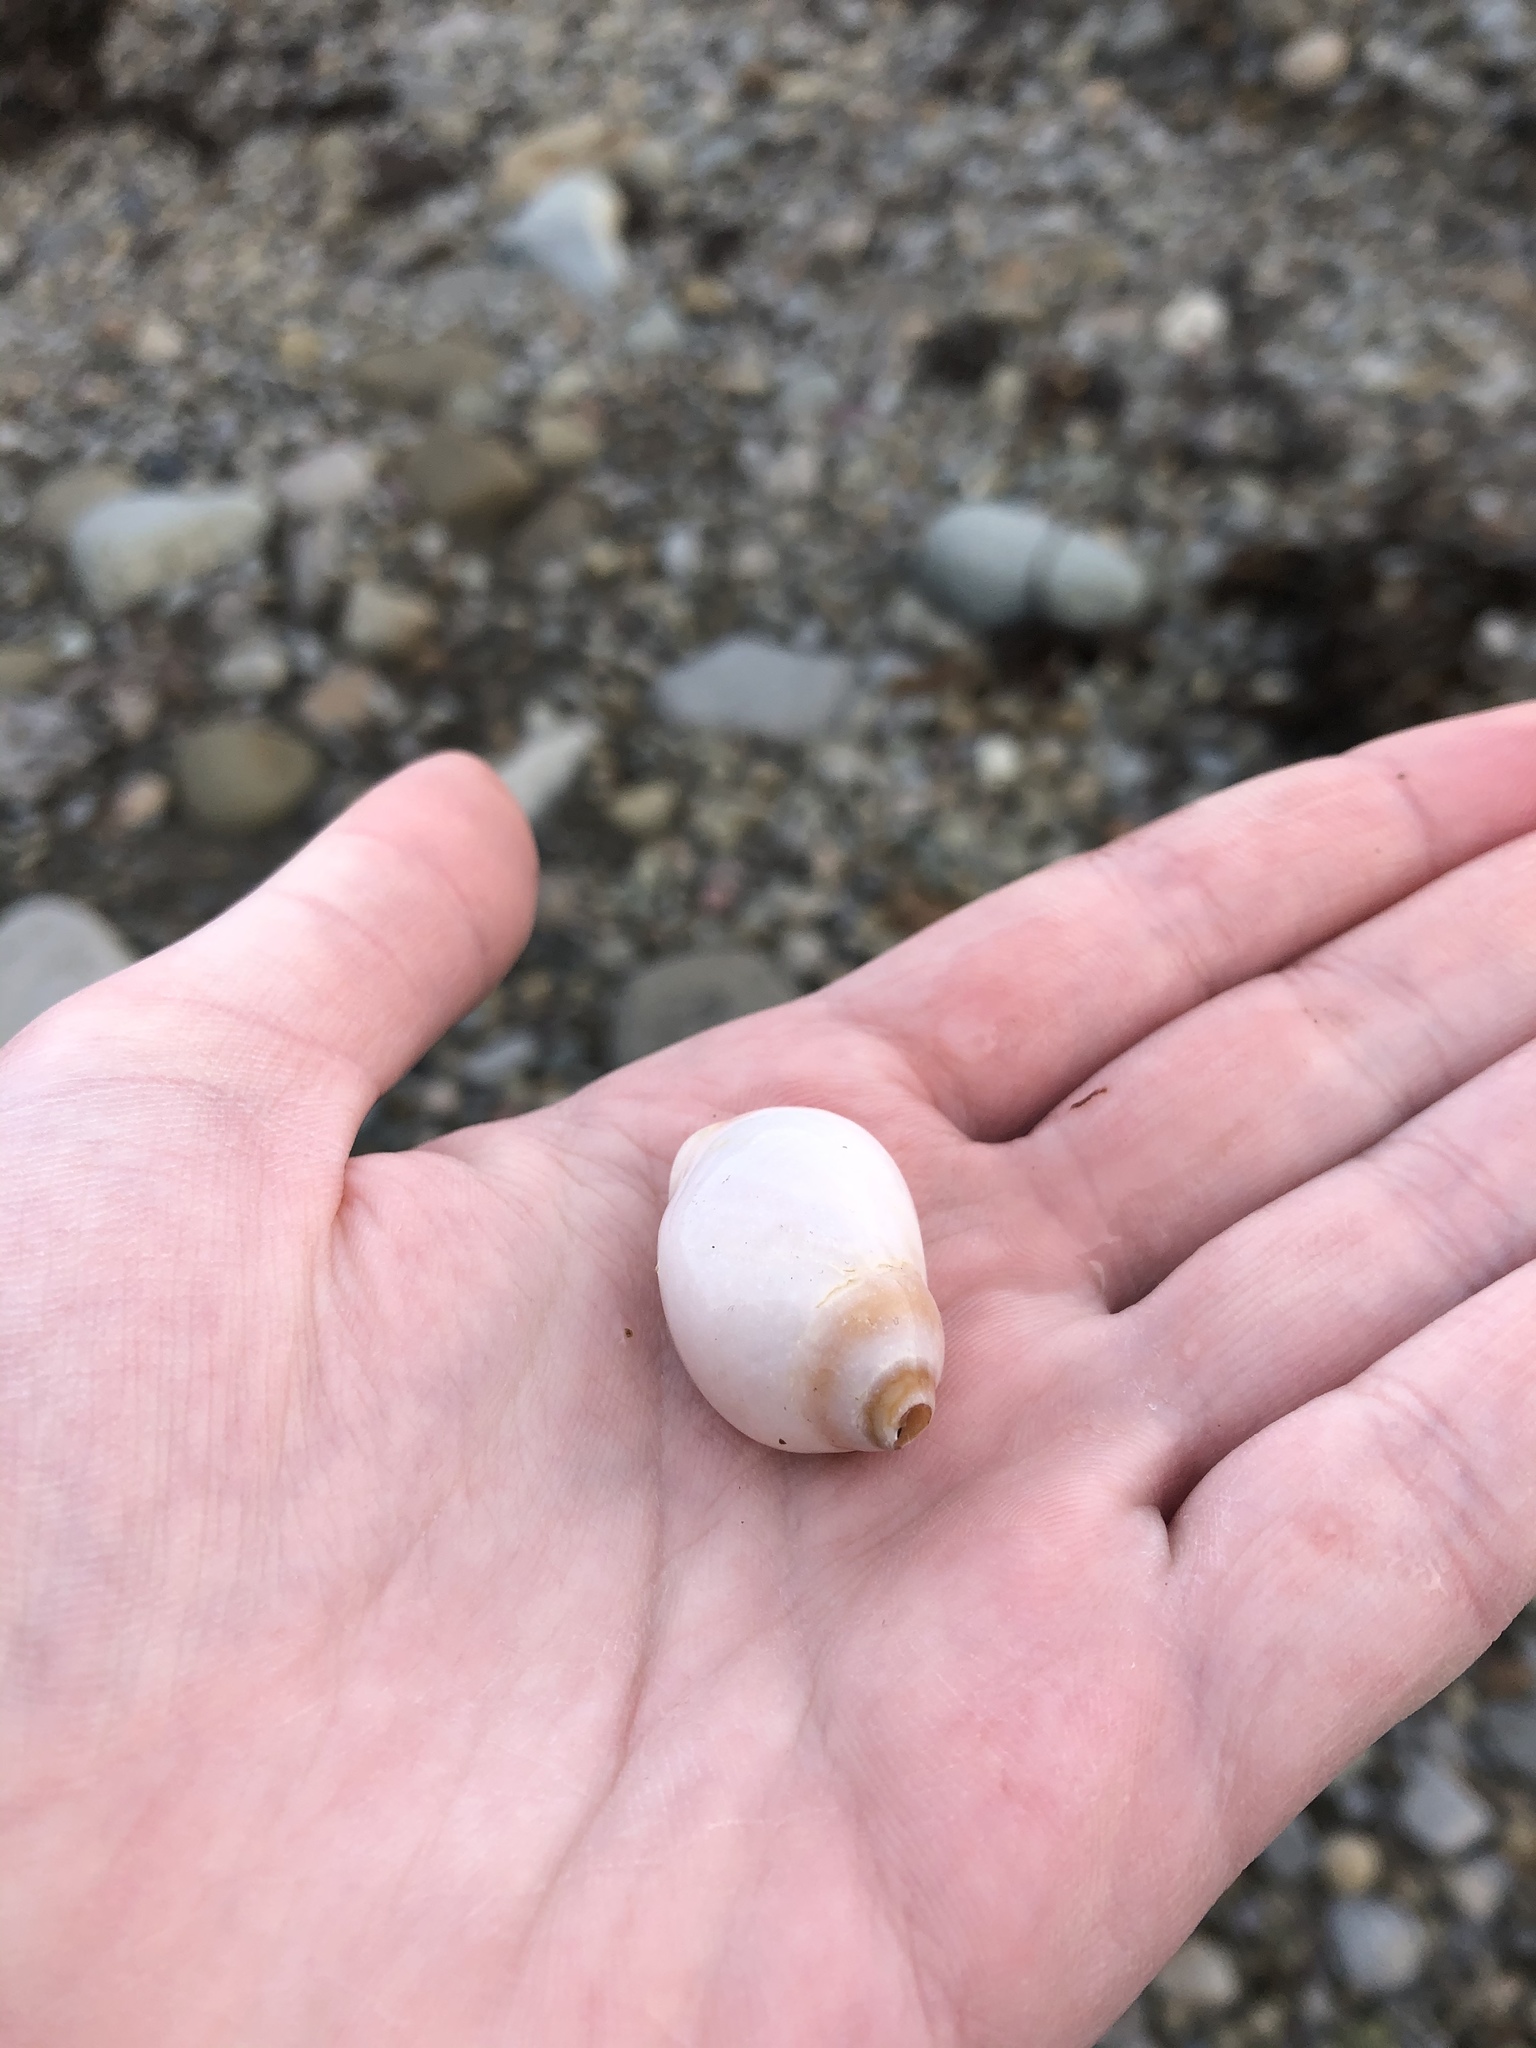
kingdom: Animalia
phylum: Mollusca
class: Gastropoda
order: Neogastropoda
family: Muricidae
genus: Nucella
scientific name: Nucella lapillus
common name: Dog whelk
